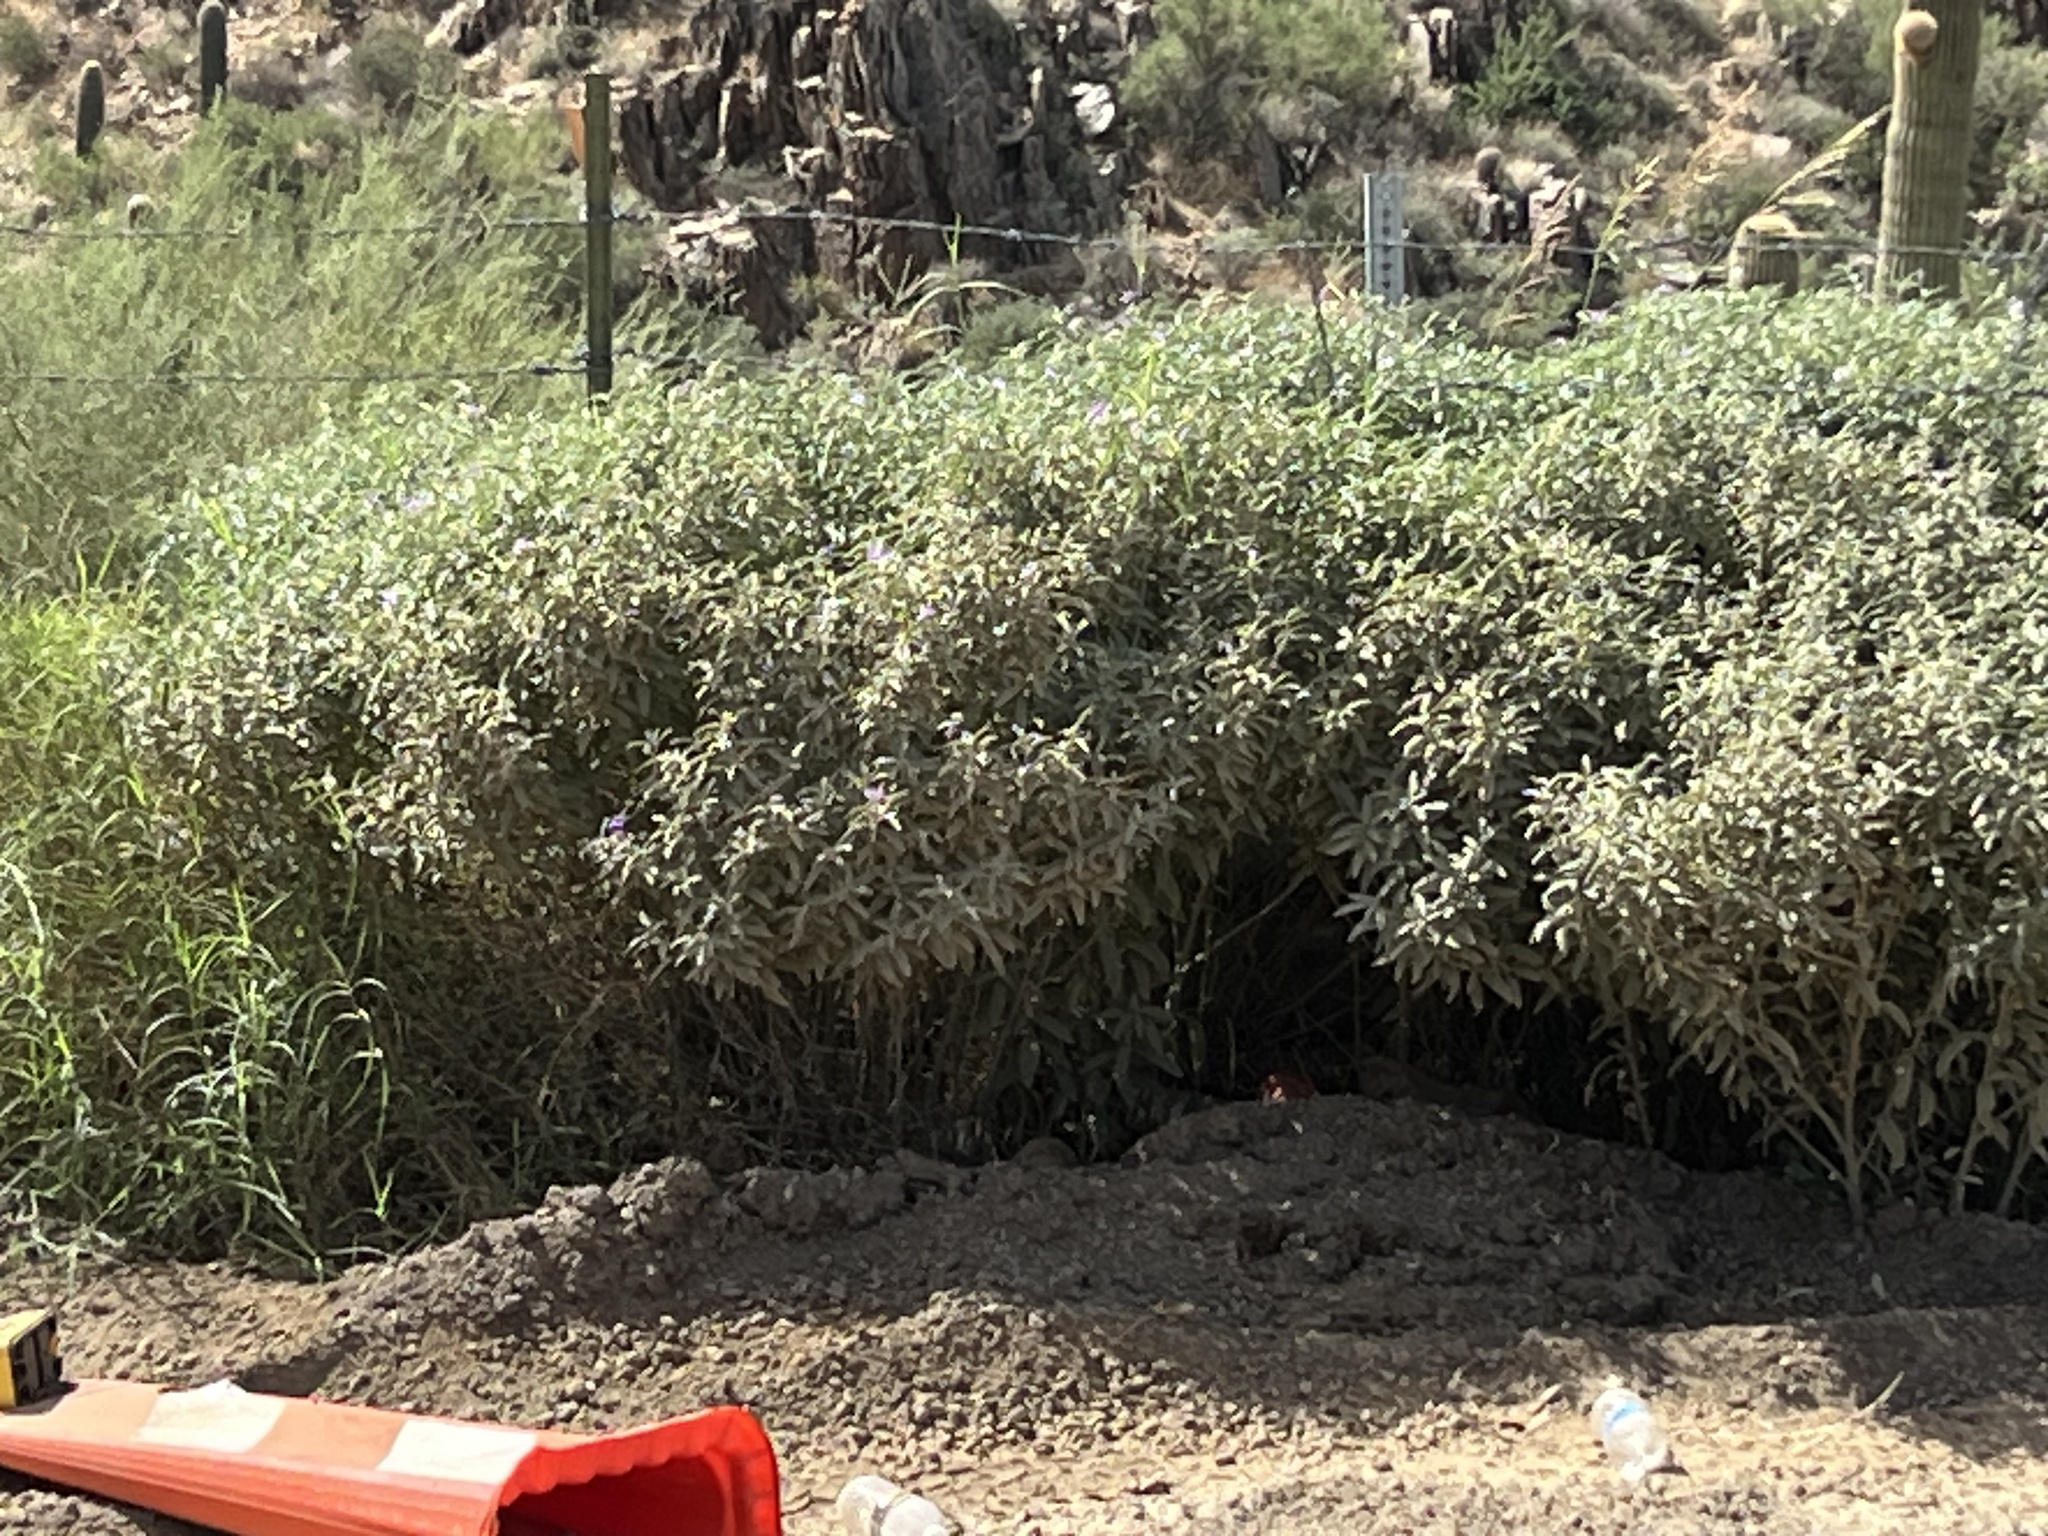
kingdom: Plantae
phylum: Tracheophyta
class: Magnoliopsida
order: Solanales
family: Solanaceae
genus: Solanum
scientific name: Solanum elaeagnifolium
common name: Silverleaf nightshade
